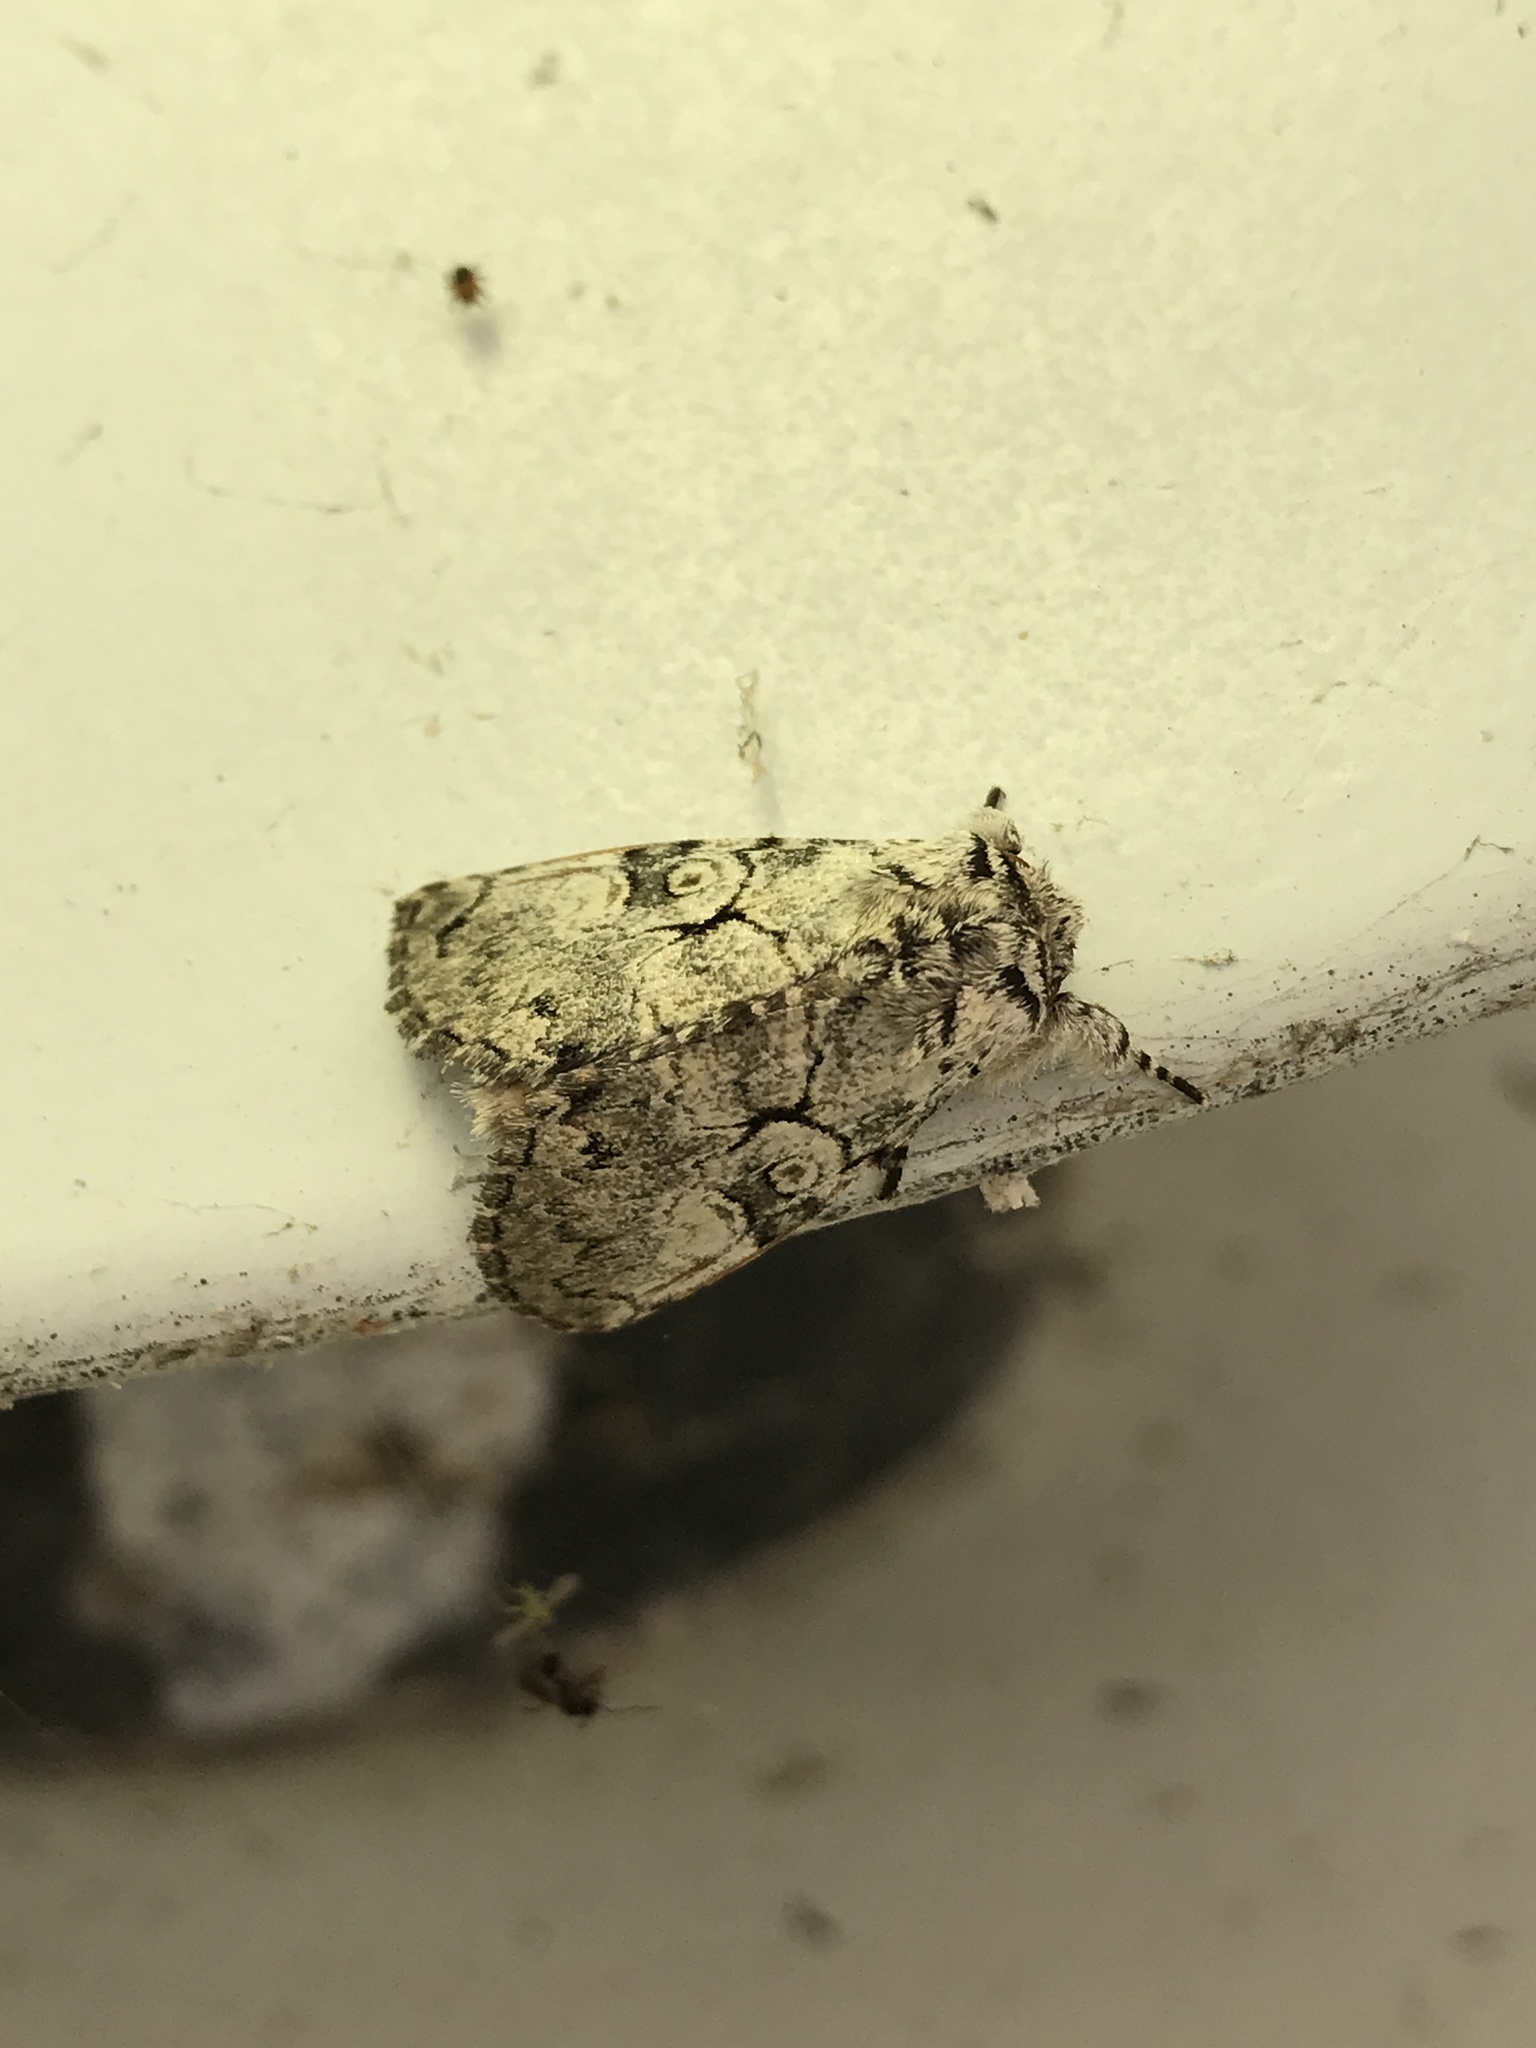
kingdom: Animalia
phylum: Arthropoda
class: Insecta
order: Lepidoptera
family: Noctuidae
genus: Charadra
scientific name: Charadra deridens
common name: Marbled tuffet
